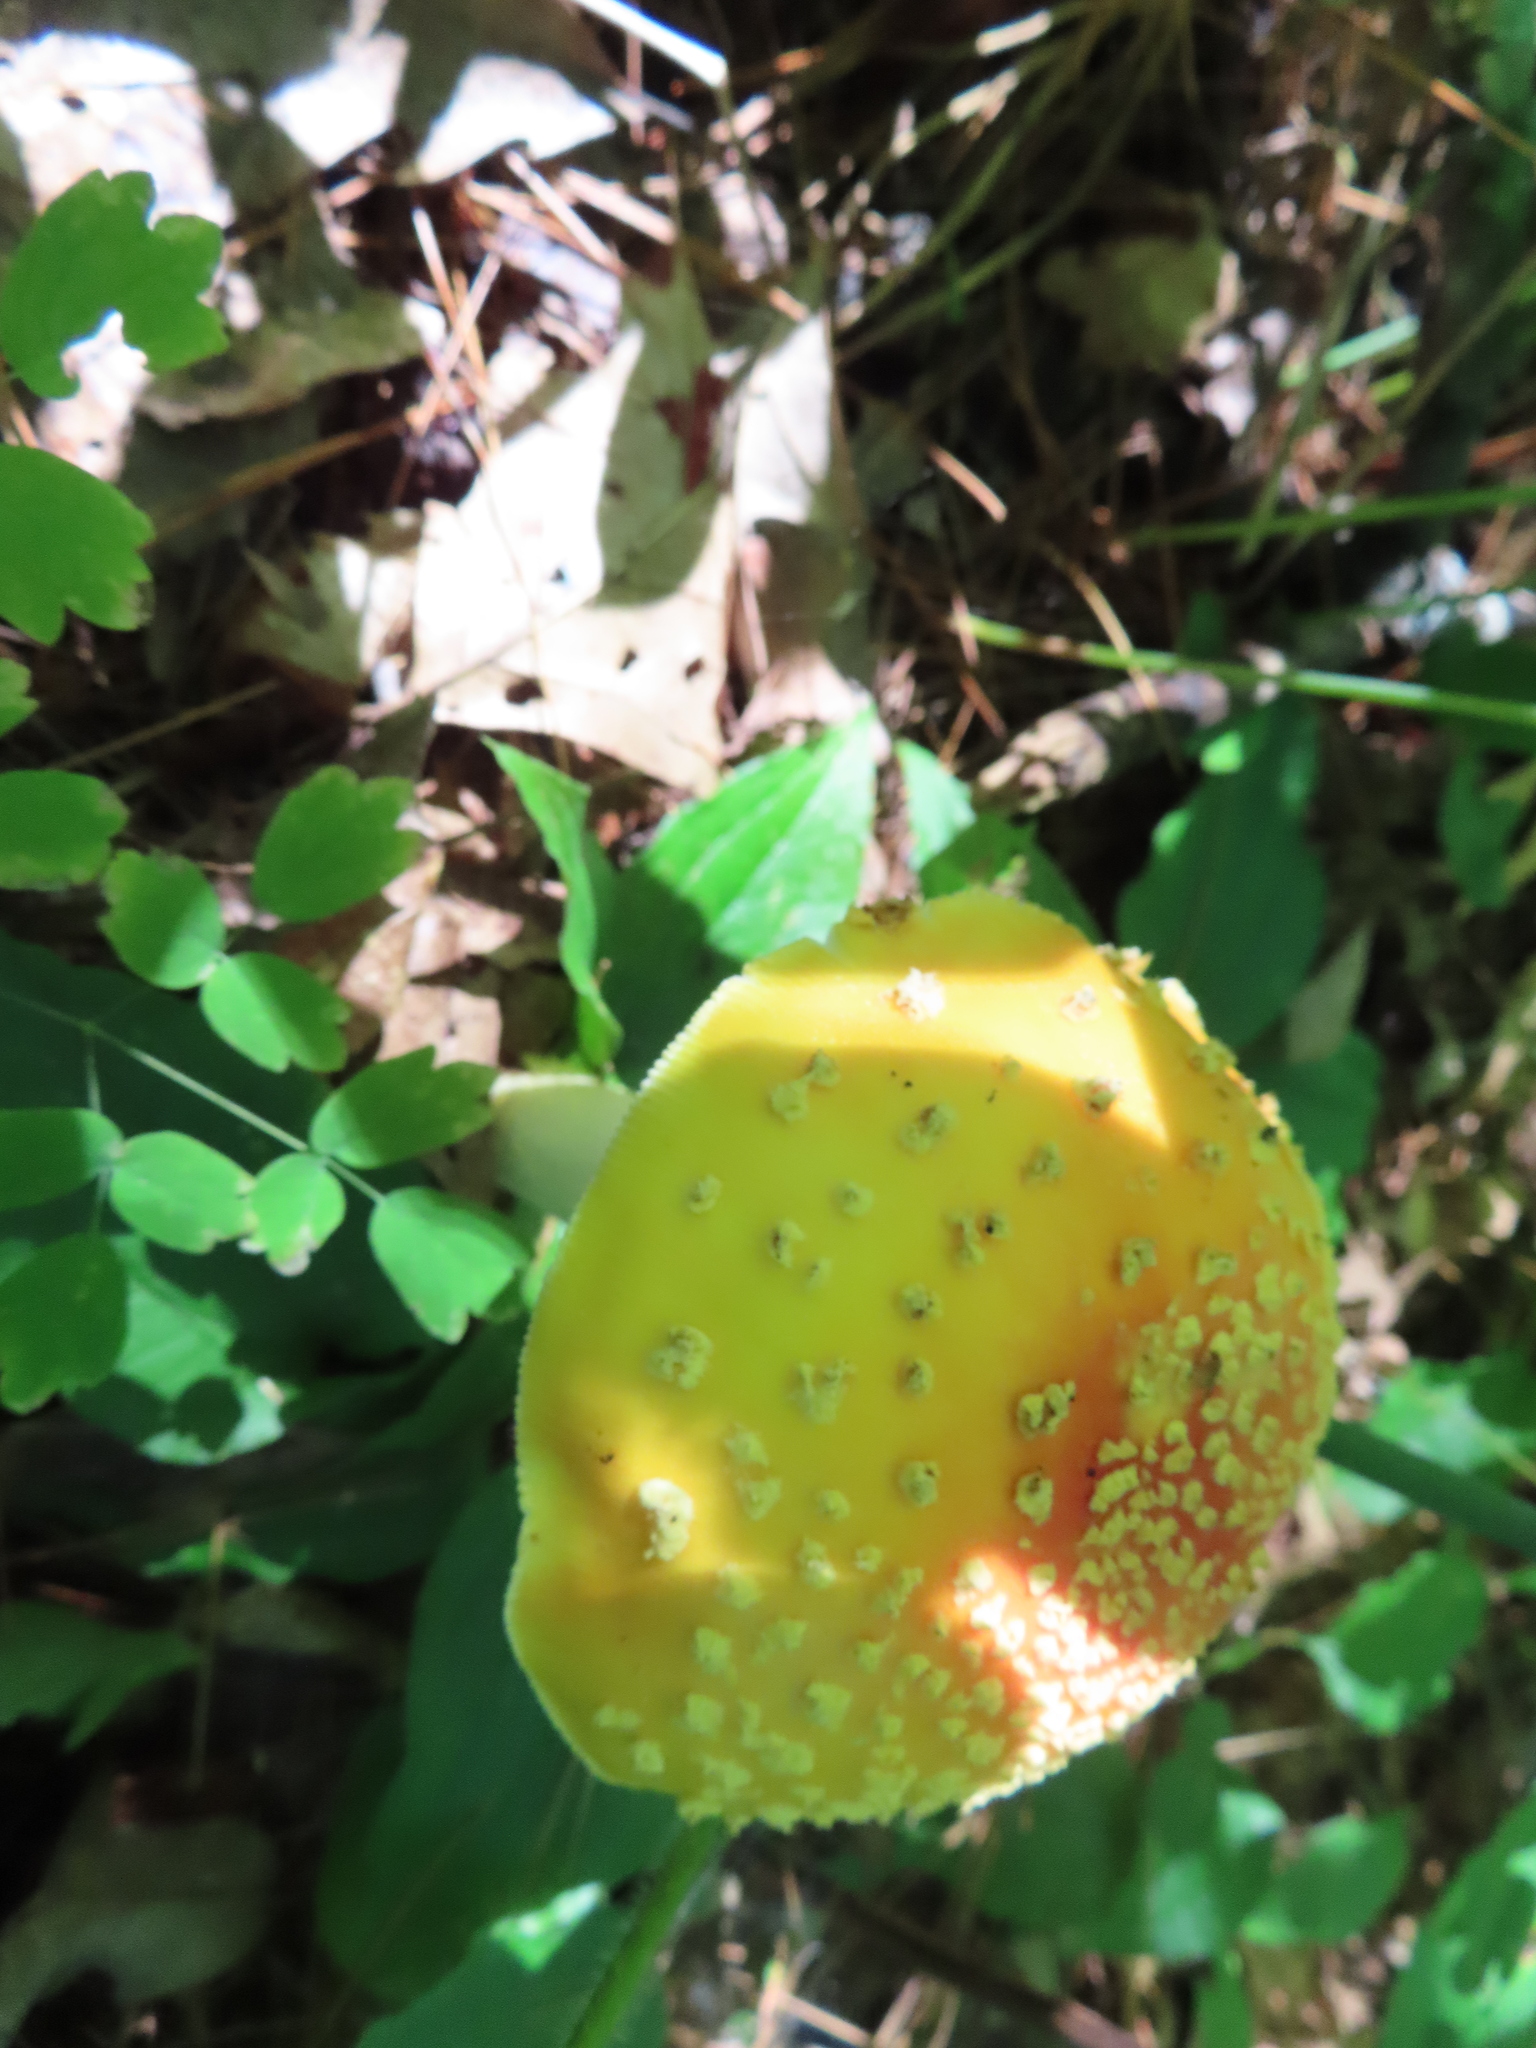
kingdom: Fungi
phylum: Basidiomycota
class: Agaricomycetes
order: Agaricales
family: Amanitaceae
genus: Amanita
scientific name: Amanita muscaria
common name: Fly agaric
